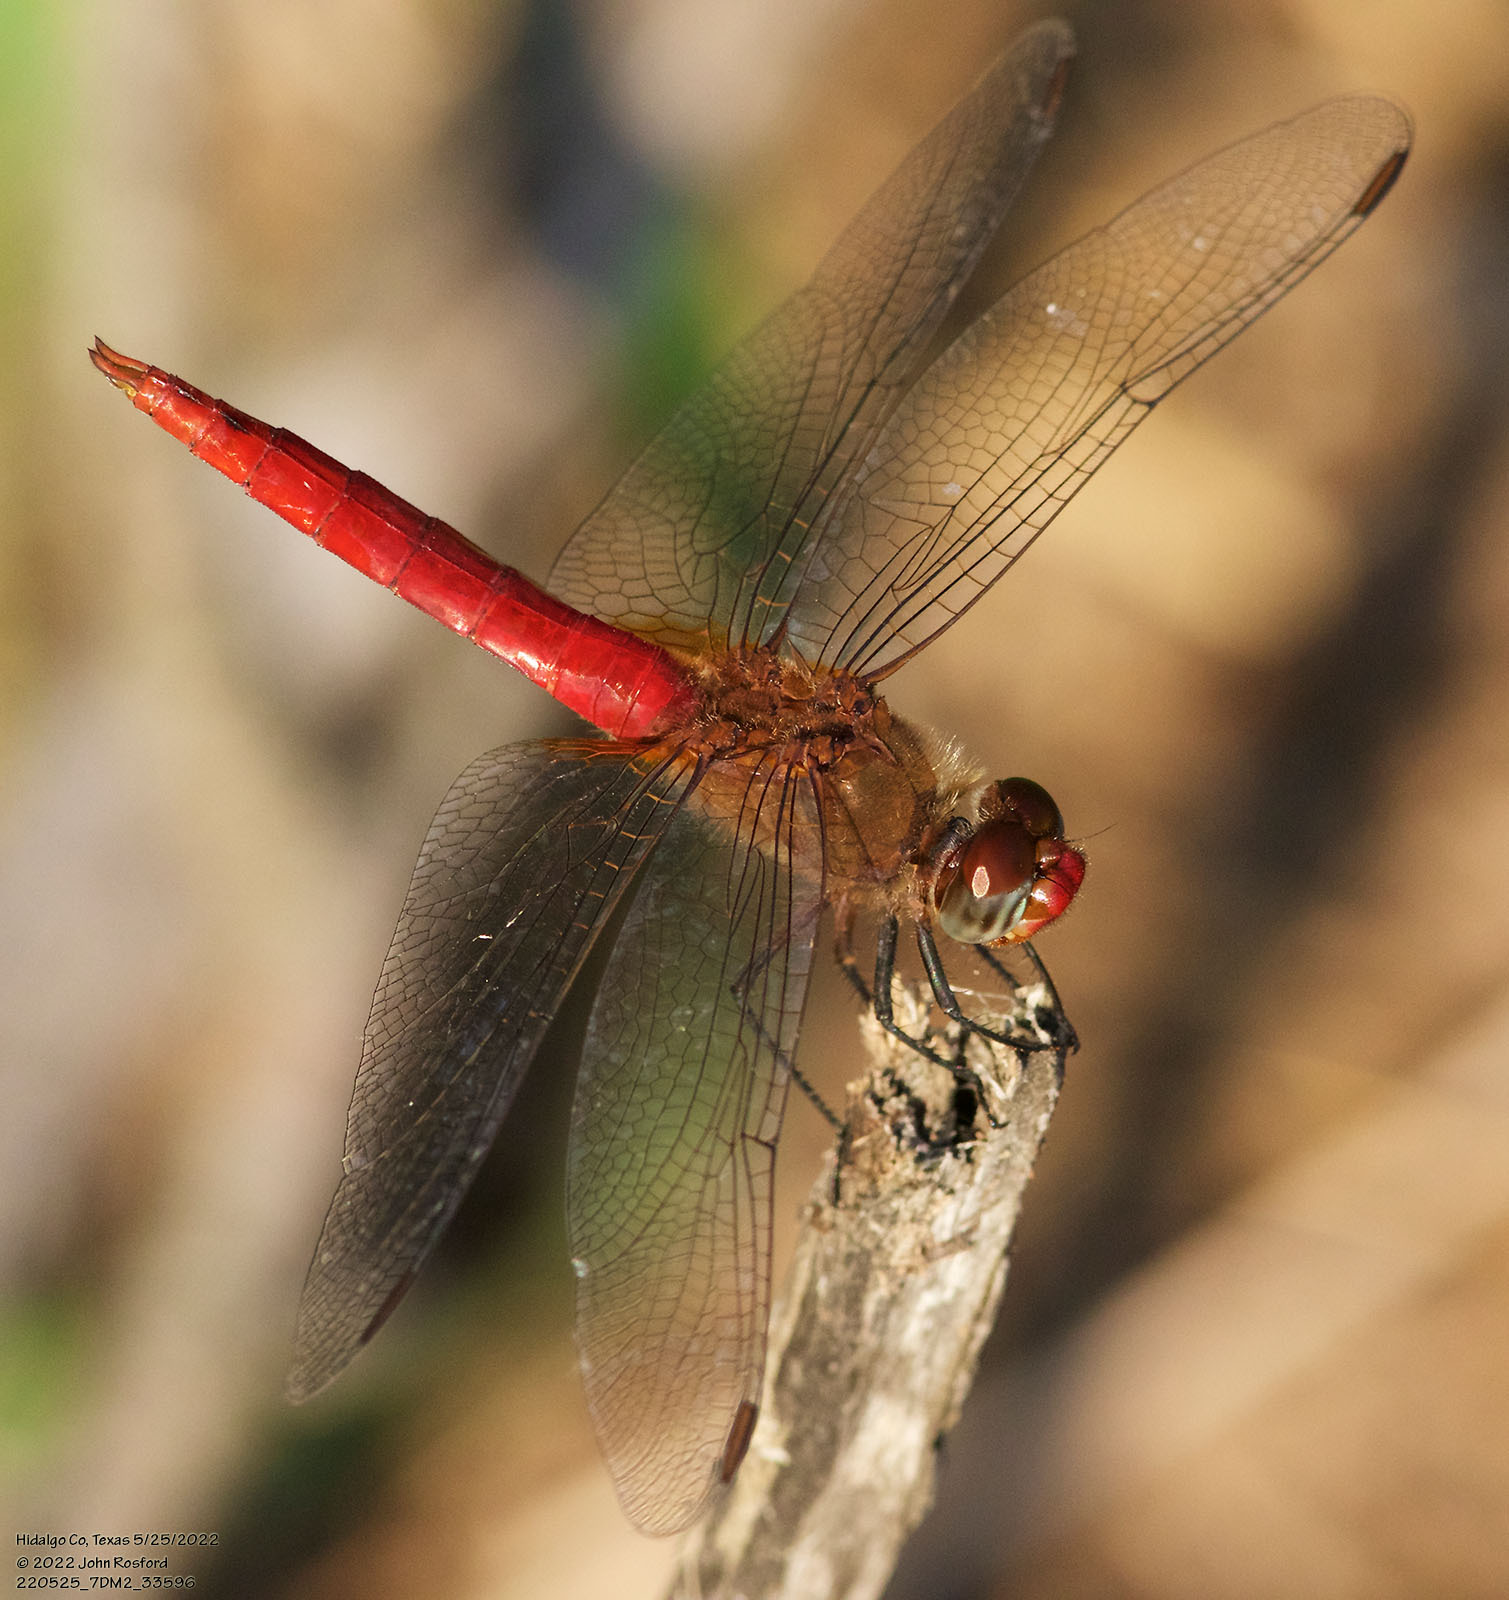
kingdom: Animalia
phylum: Arthropoda
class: Insecta
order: Odonata
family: Libellulidae
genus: Brachymesia
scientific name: Brachymesia furcata
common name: Red-taled pennant
